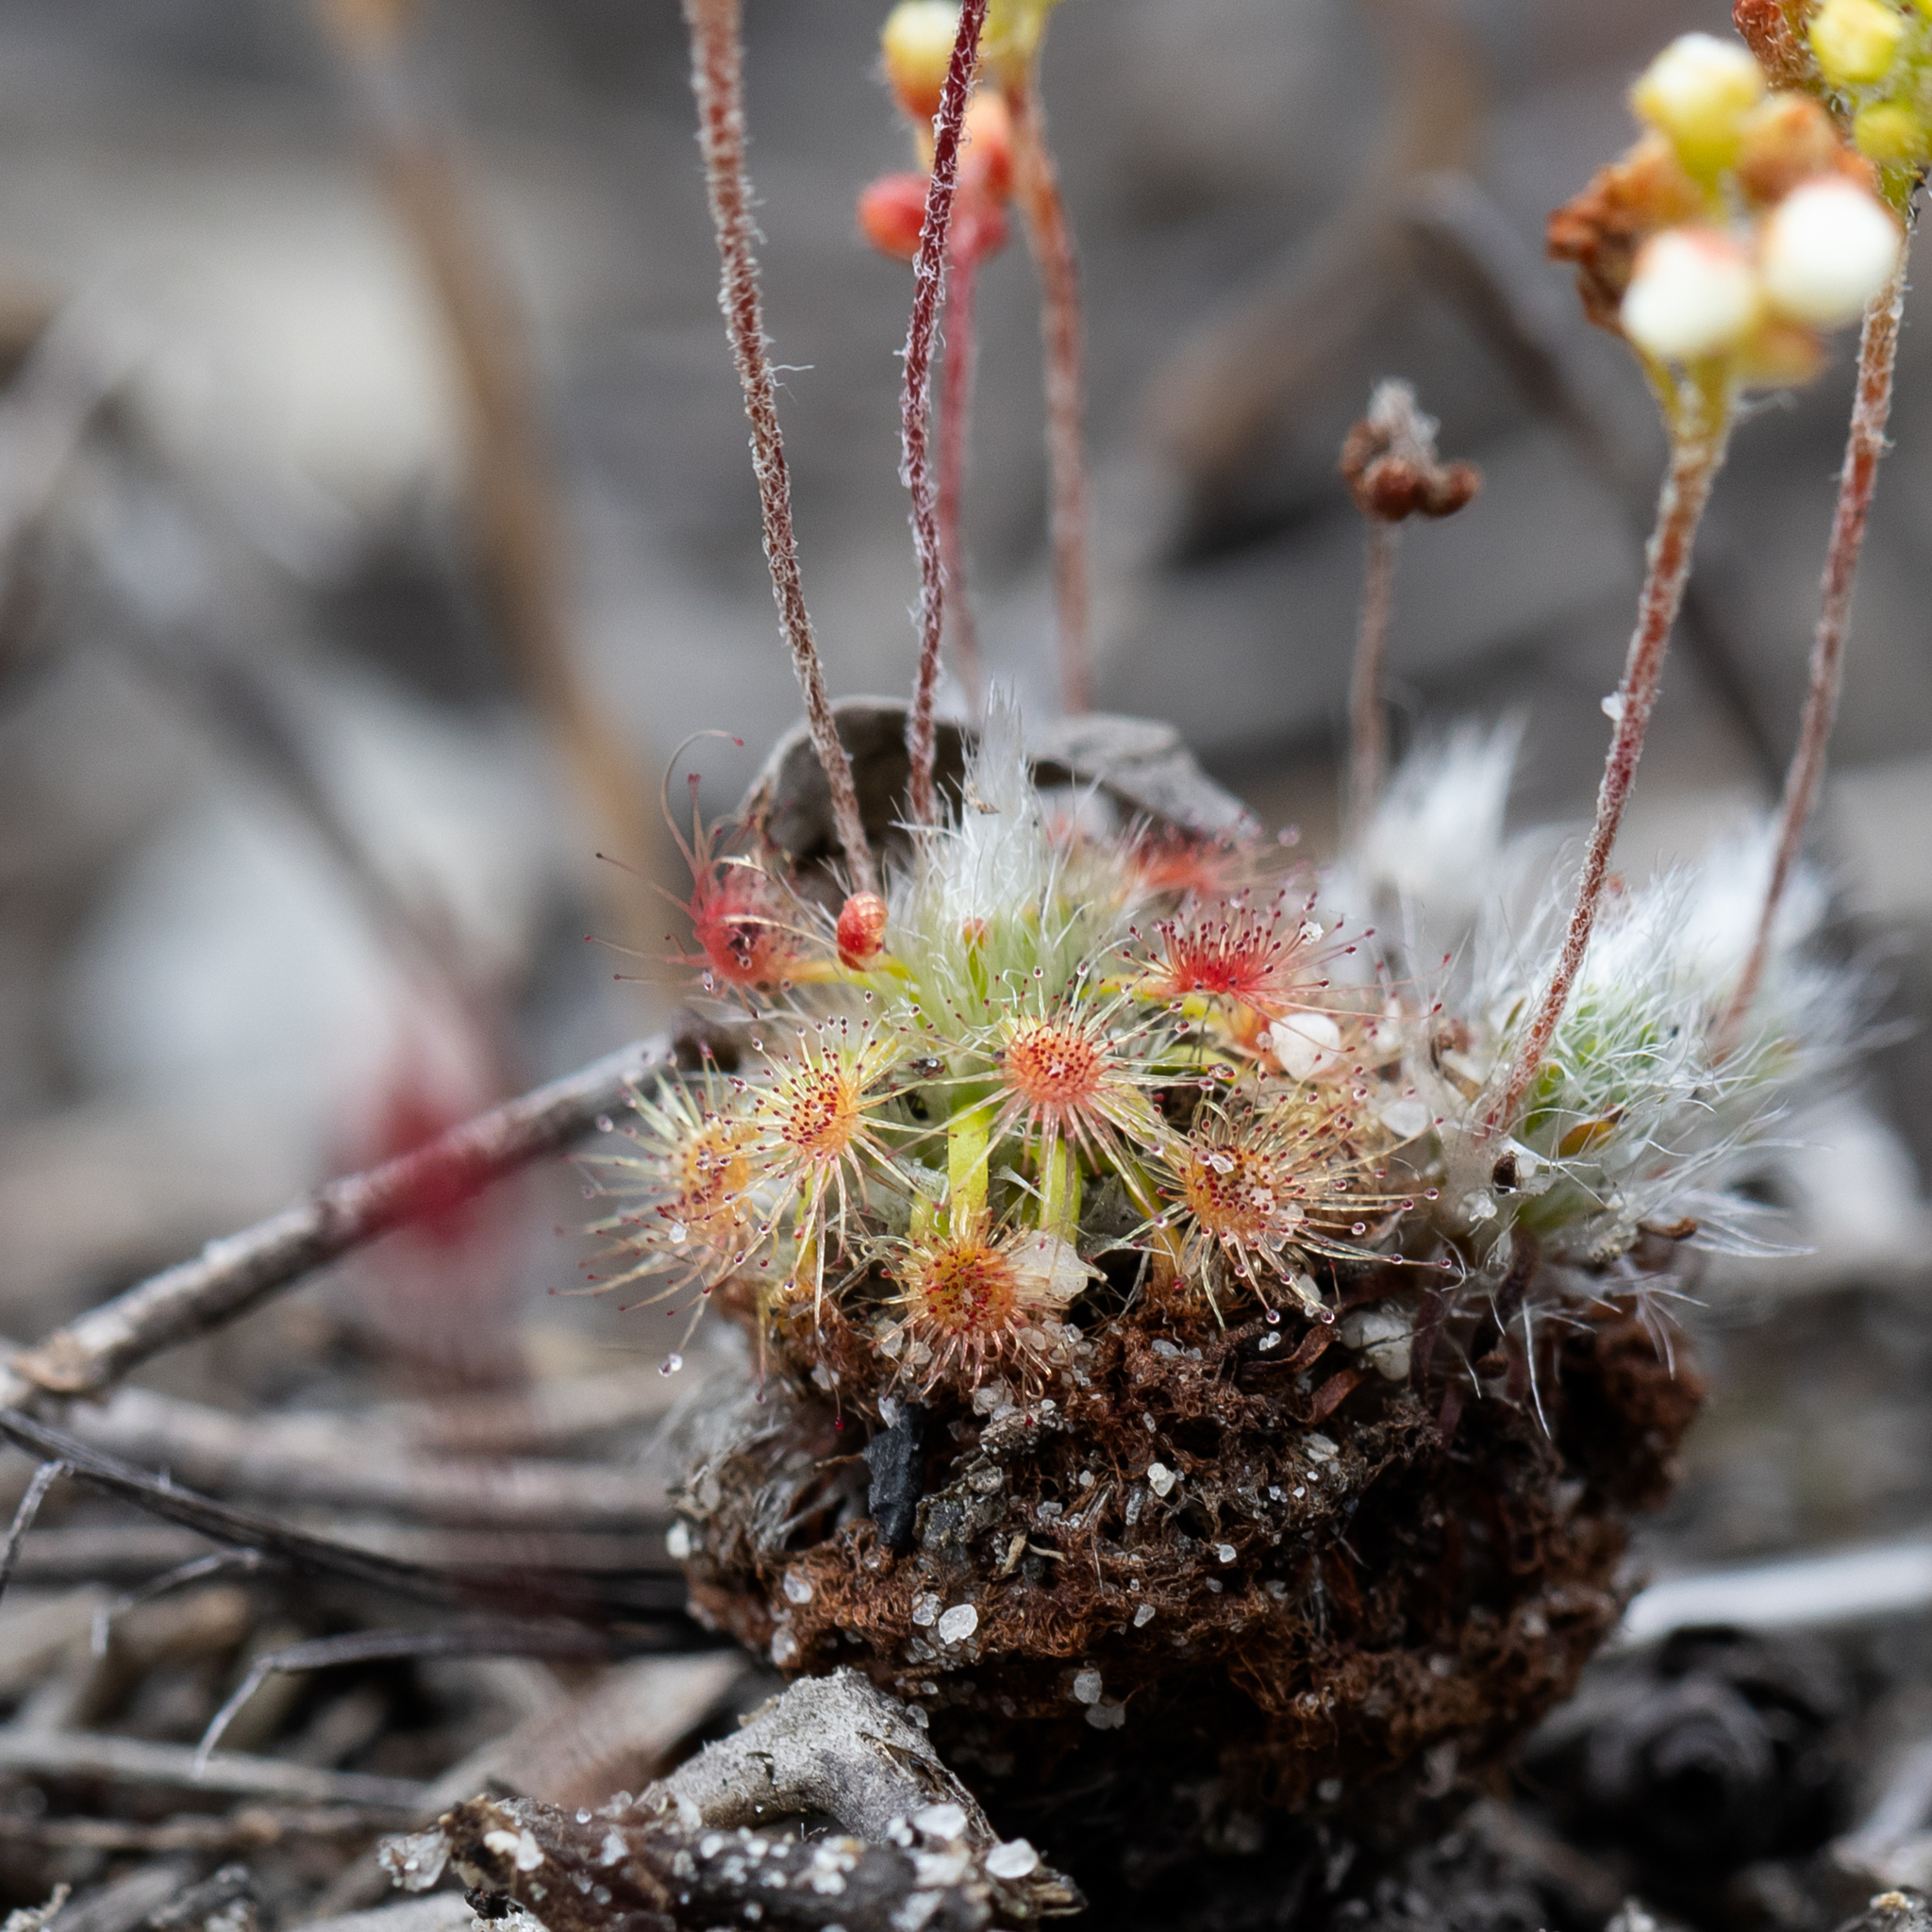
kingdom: Plantae
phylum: Tracheophyta
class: Magnoliopsida
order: Caryophyllales
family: Droseraceae
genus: Drosera
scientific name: Drosera paleacea
